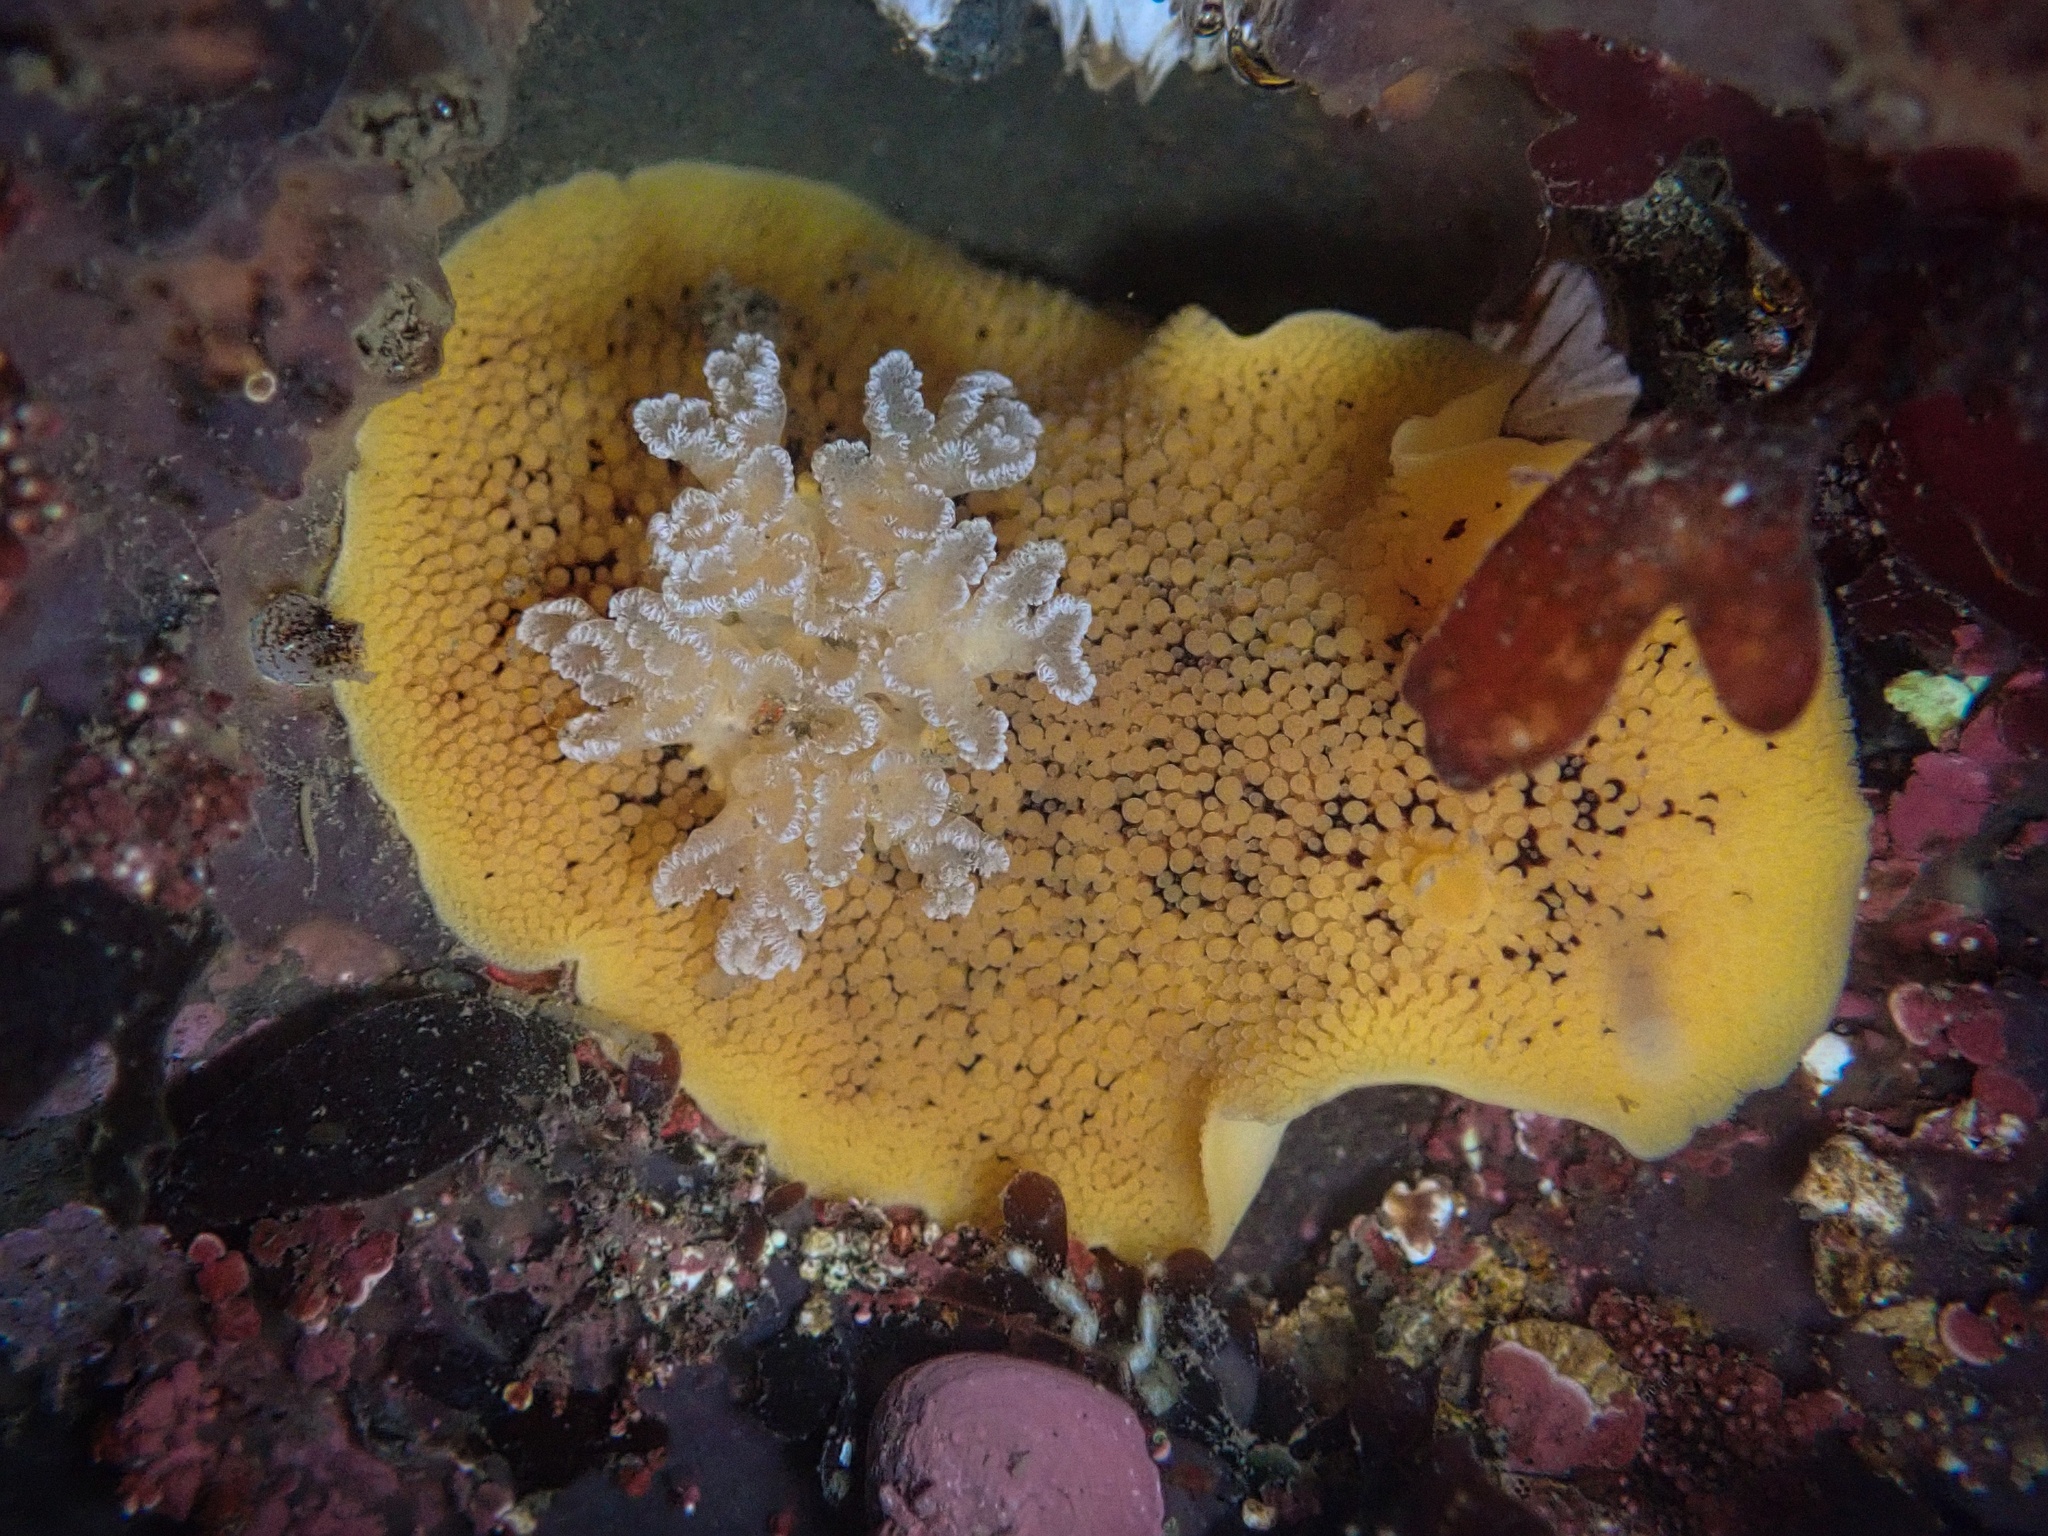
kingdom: Animalia
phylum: Mollusca
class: Gastropoda
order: Nudibranchia
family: Discodorididae
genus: Peltodoris
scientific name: Peltodoris nobilis
